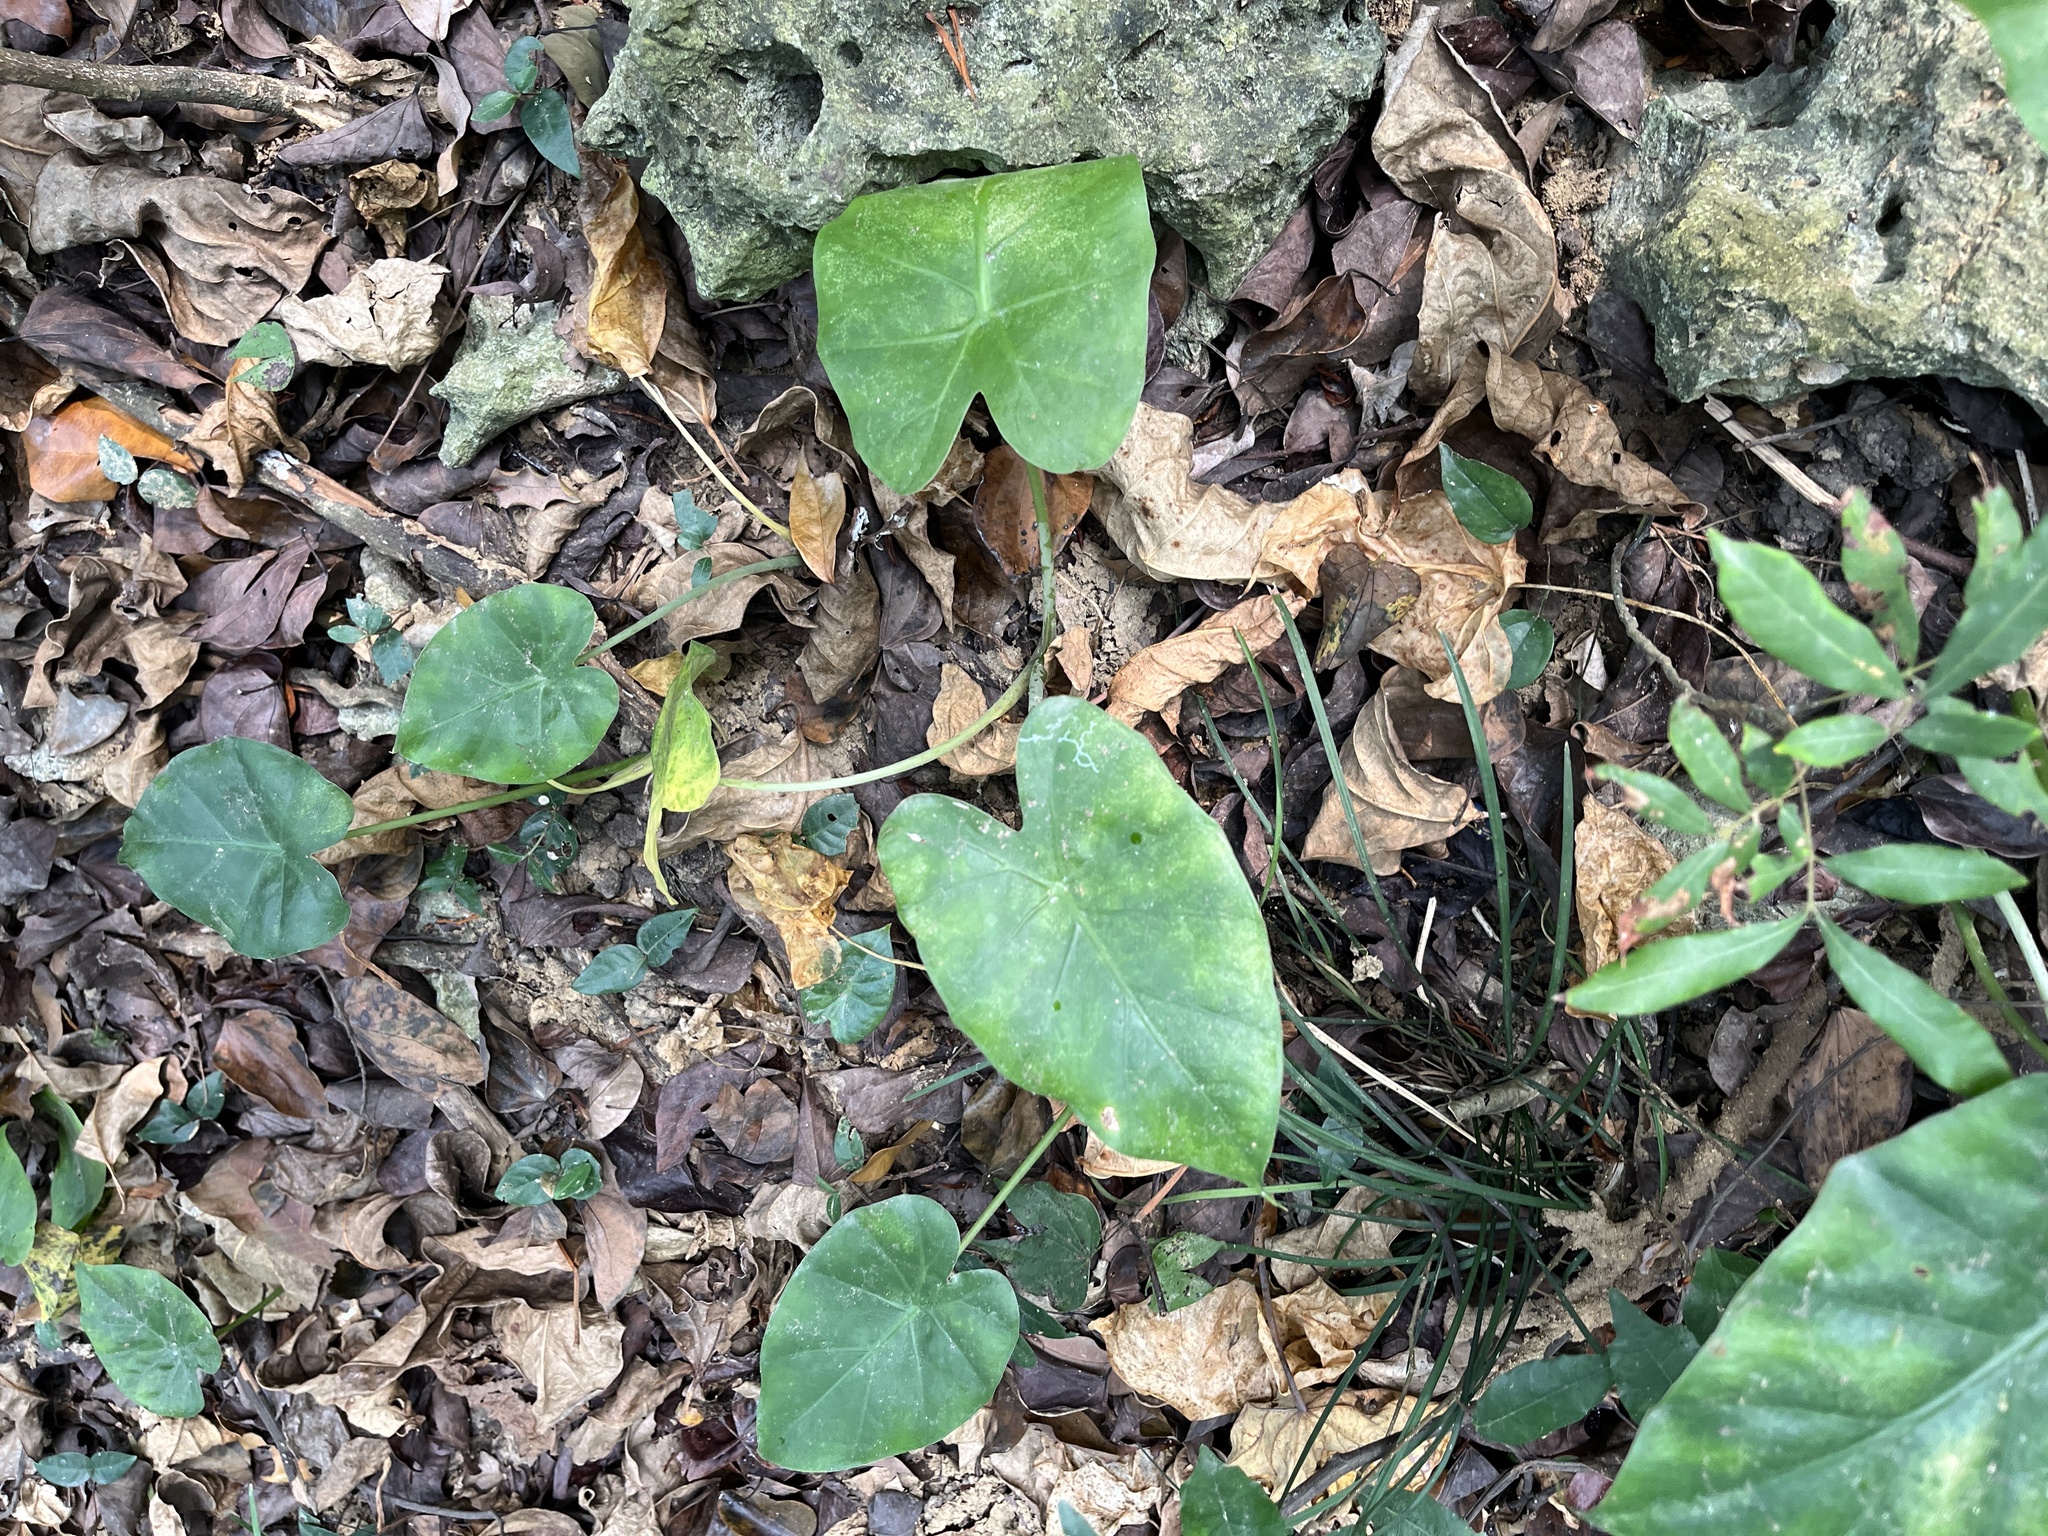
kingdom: Plantae
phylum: Tracheophyta
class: Liliopsida
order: Alismatales
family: Araceae
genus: Alocasia
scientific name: Alocasia odora
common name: Asian taro
